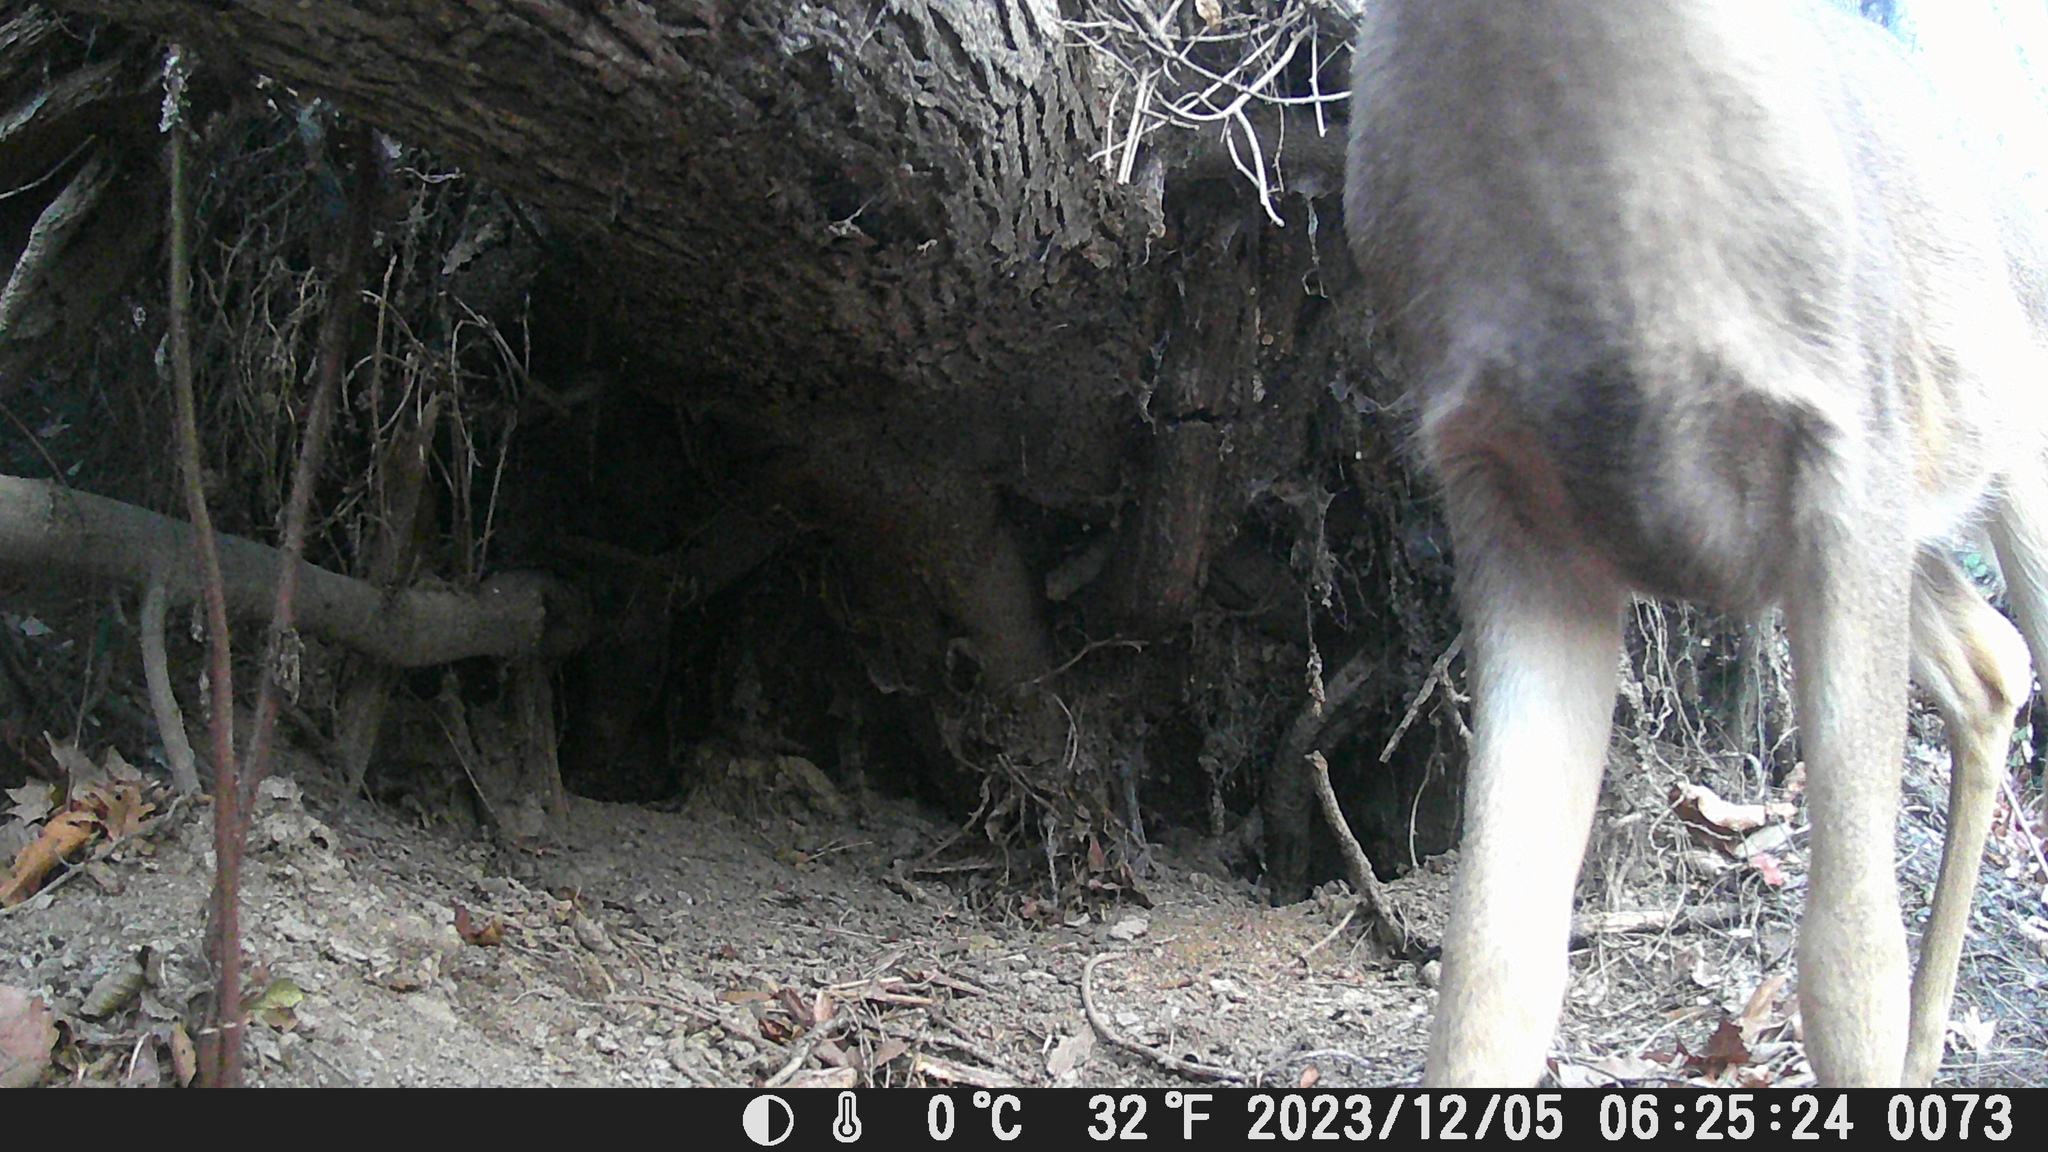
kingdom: Animalia
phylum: Chordata
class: Mammalia
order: Artiodactyla
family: Cervidae
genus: Odocoileus
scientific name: Odocoileus virginianus
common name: White-tailed deer
